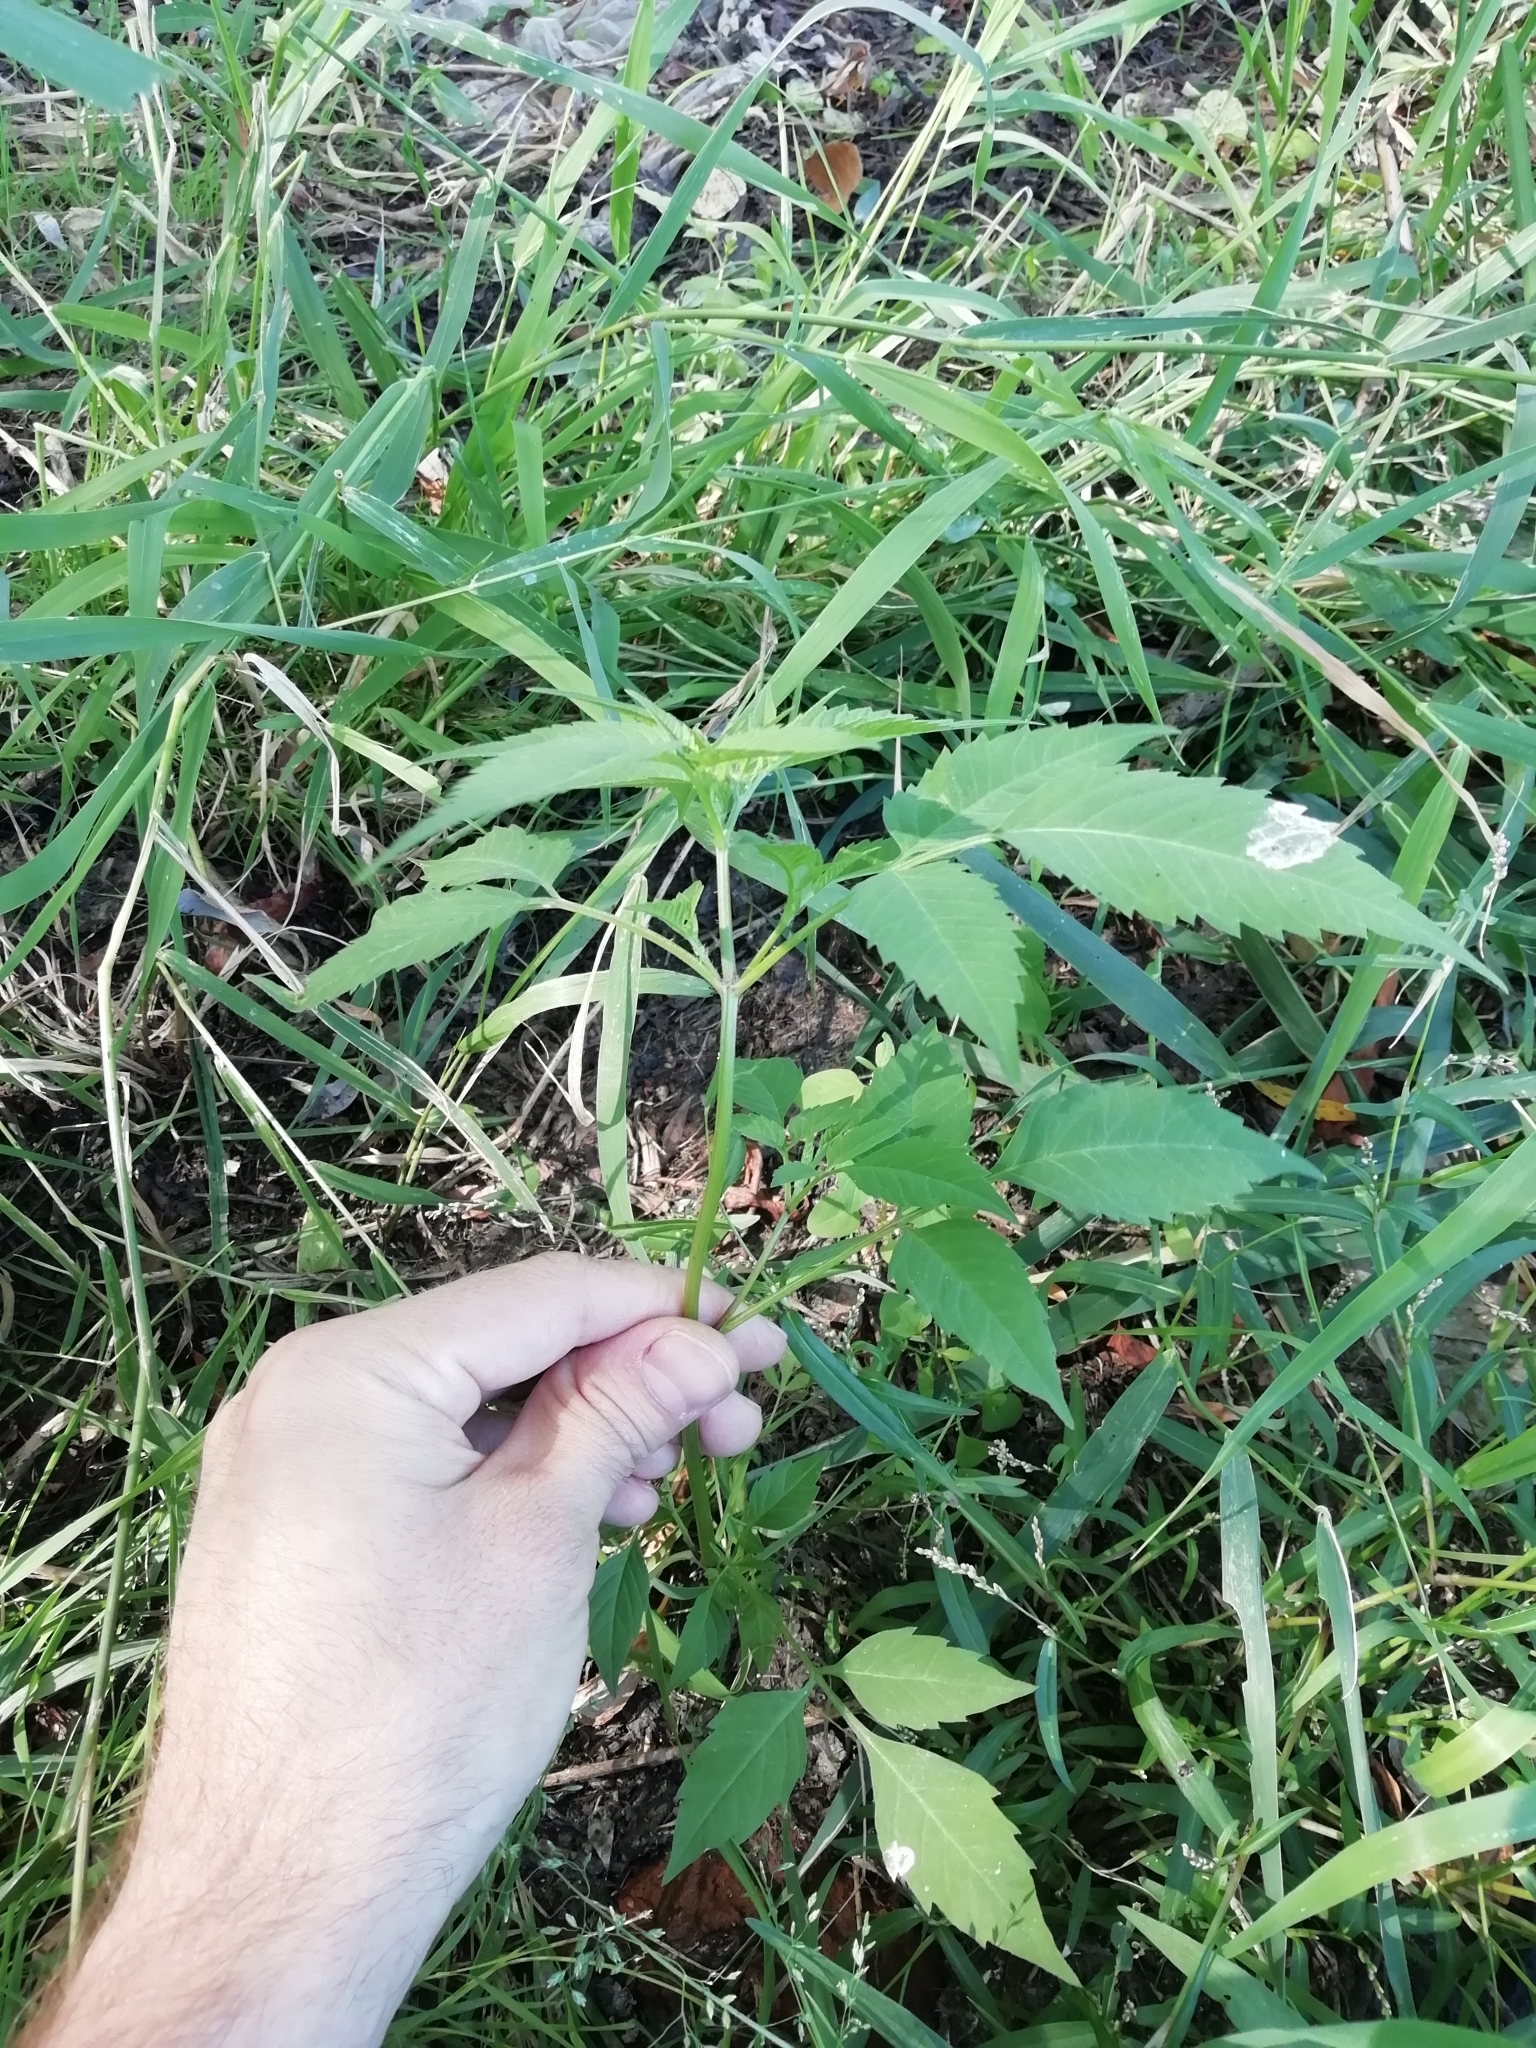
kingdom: Plantae
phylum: Tracheophyta
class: Magnoliopsida
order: Asterales
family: Asteraceae
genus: Bidens
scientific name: Bidens frondosa
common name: Beggarticks
